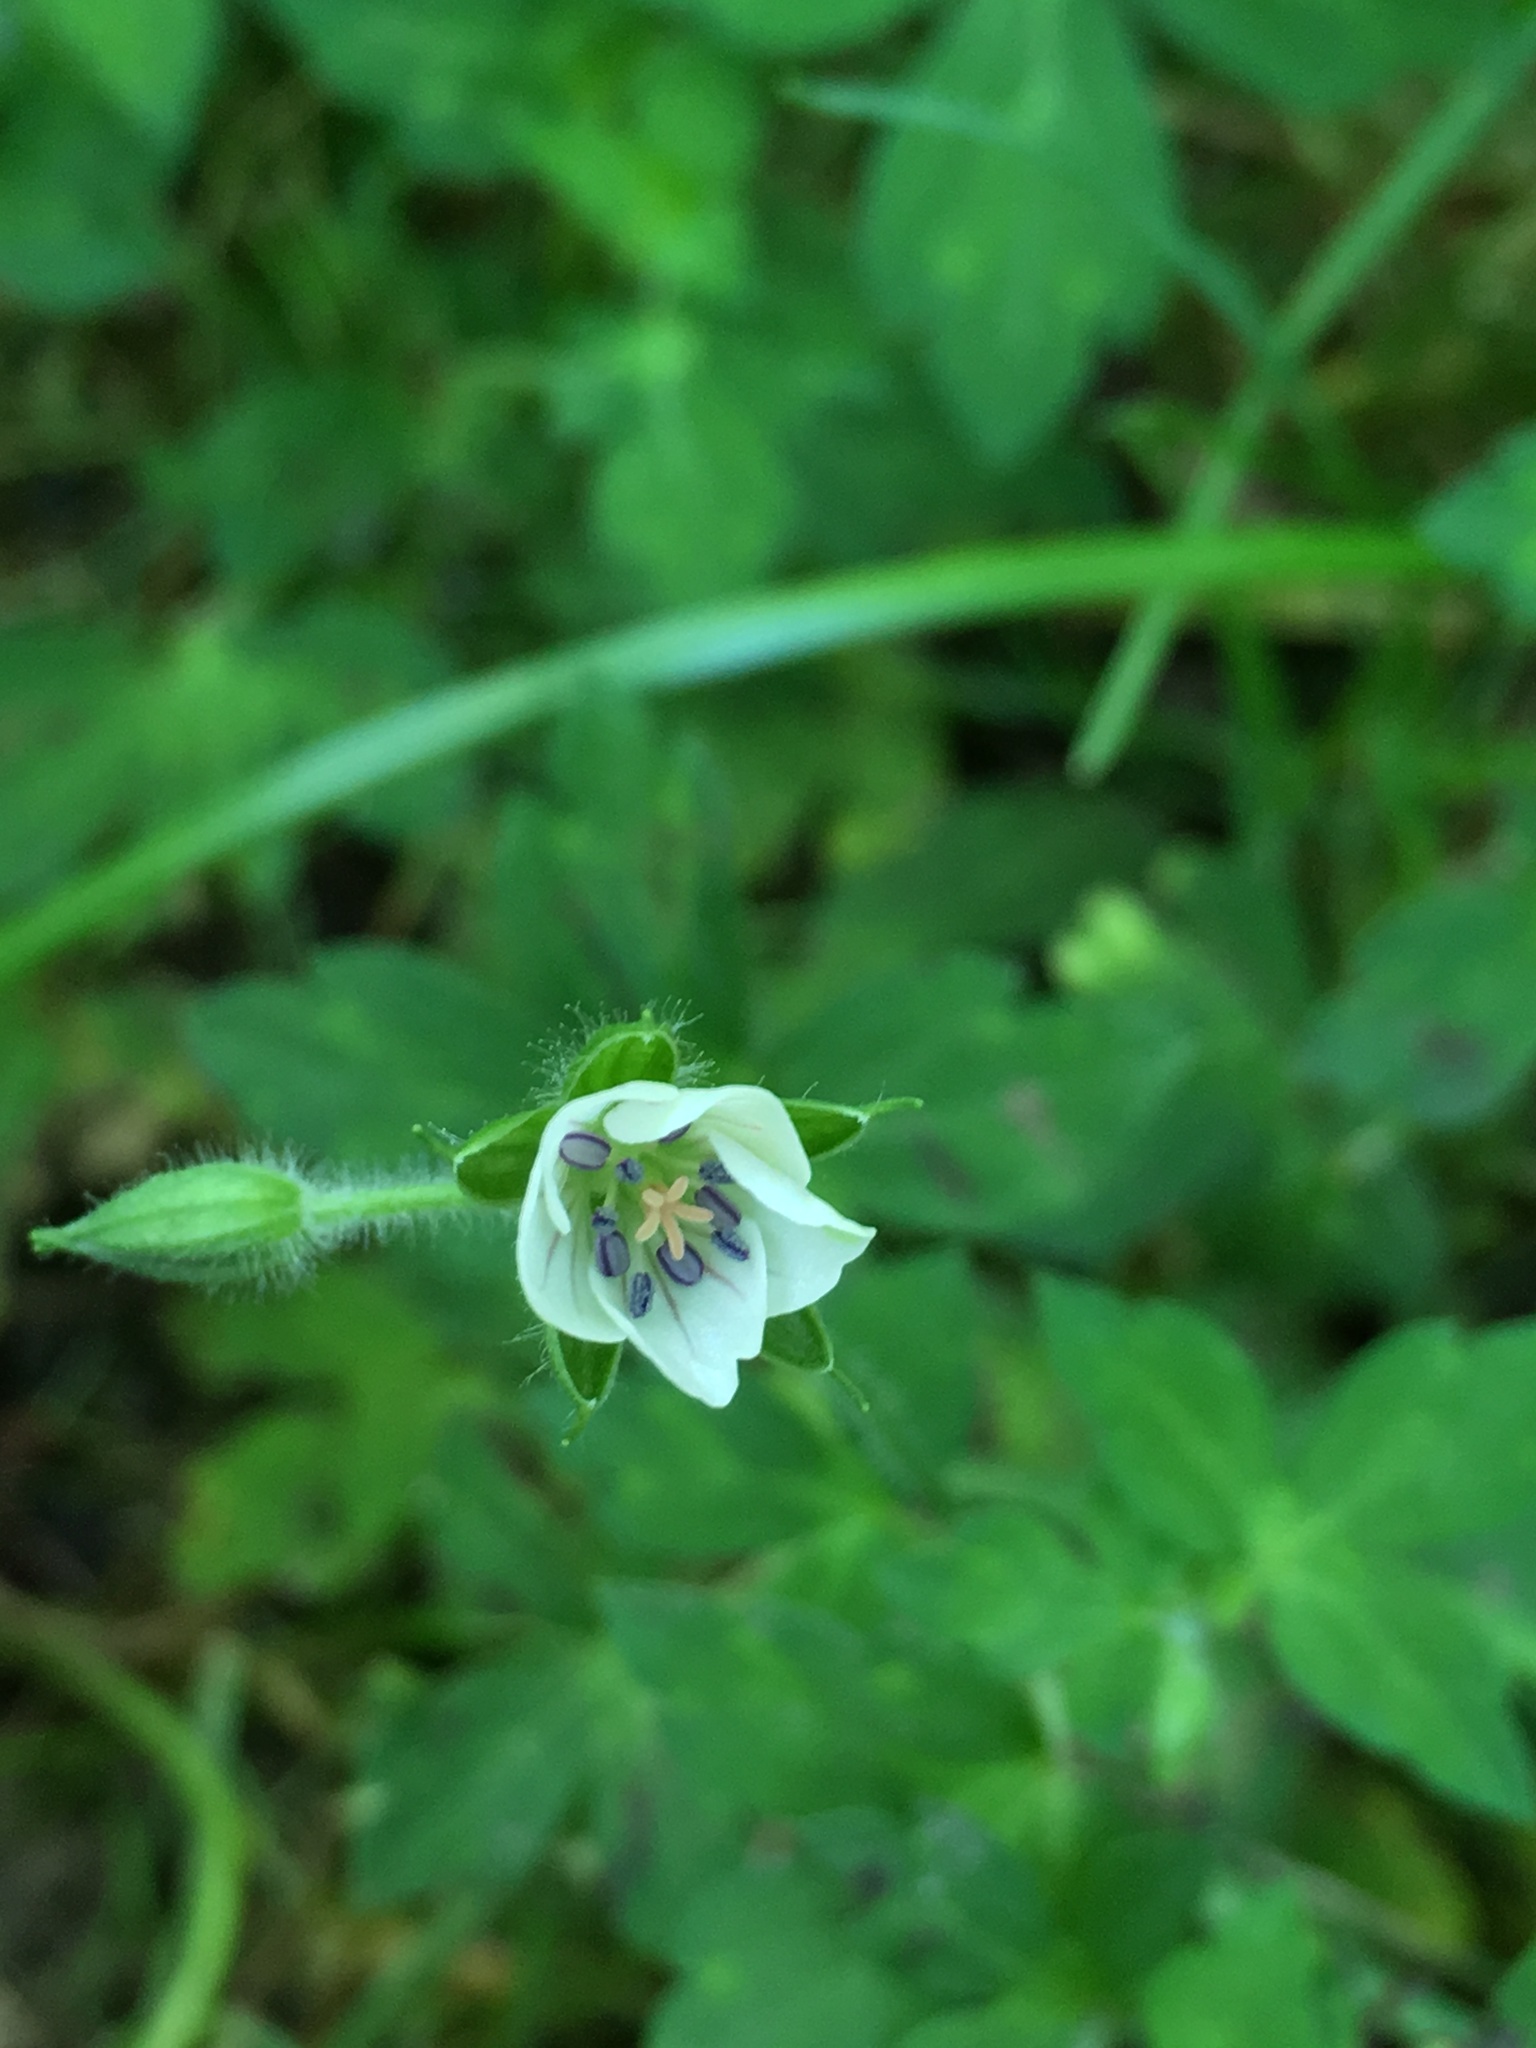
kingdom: Plantae
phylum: Tracheophyta
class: Magnoliopsida
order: Geraniales
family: Geraniaceae
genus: Geranium
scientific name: Geranium thunbergii
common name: Dewdrop crane's-bill
